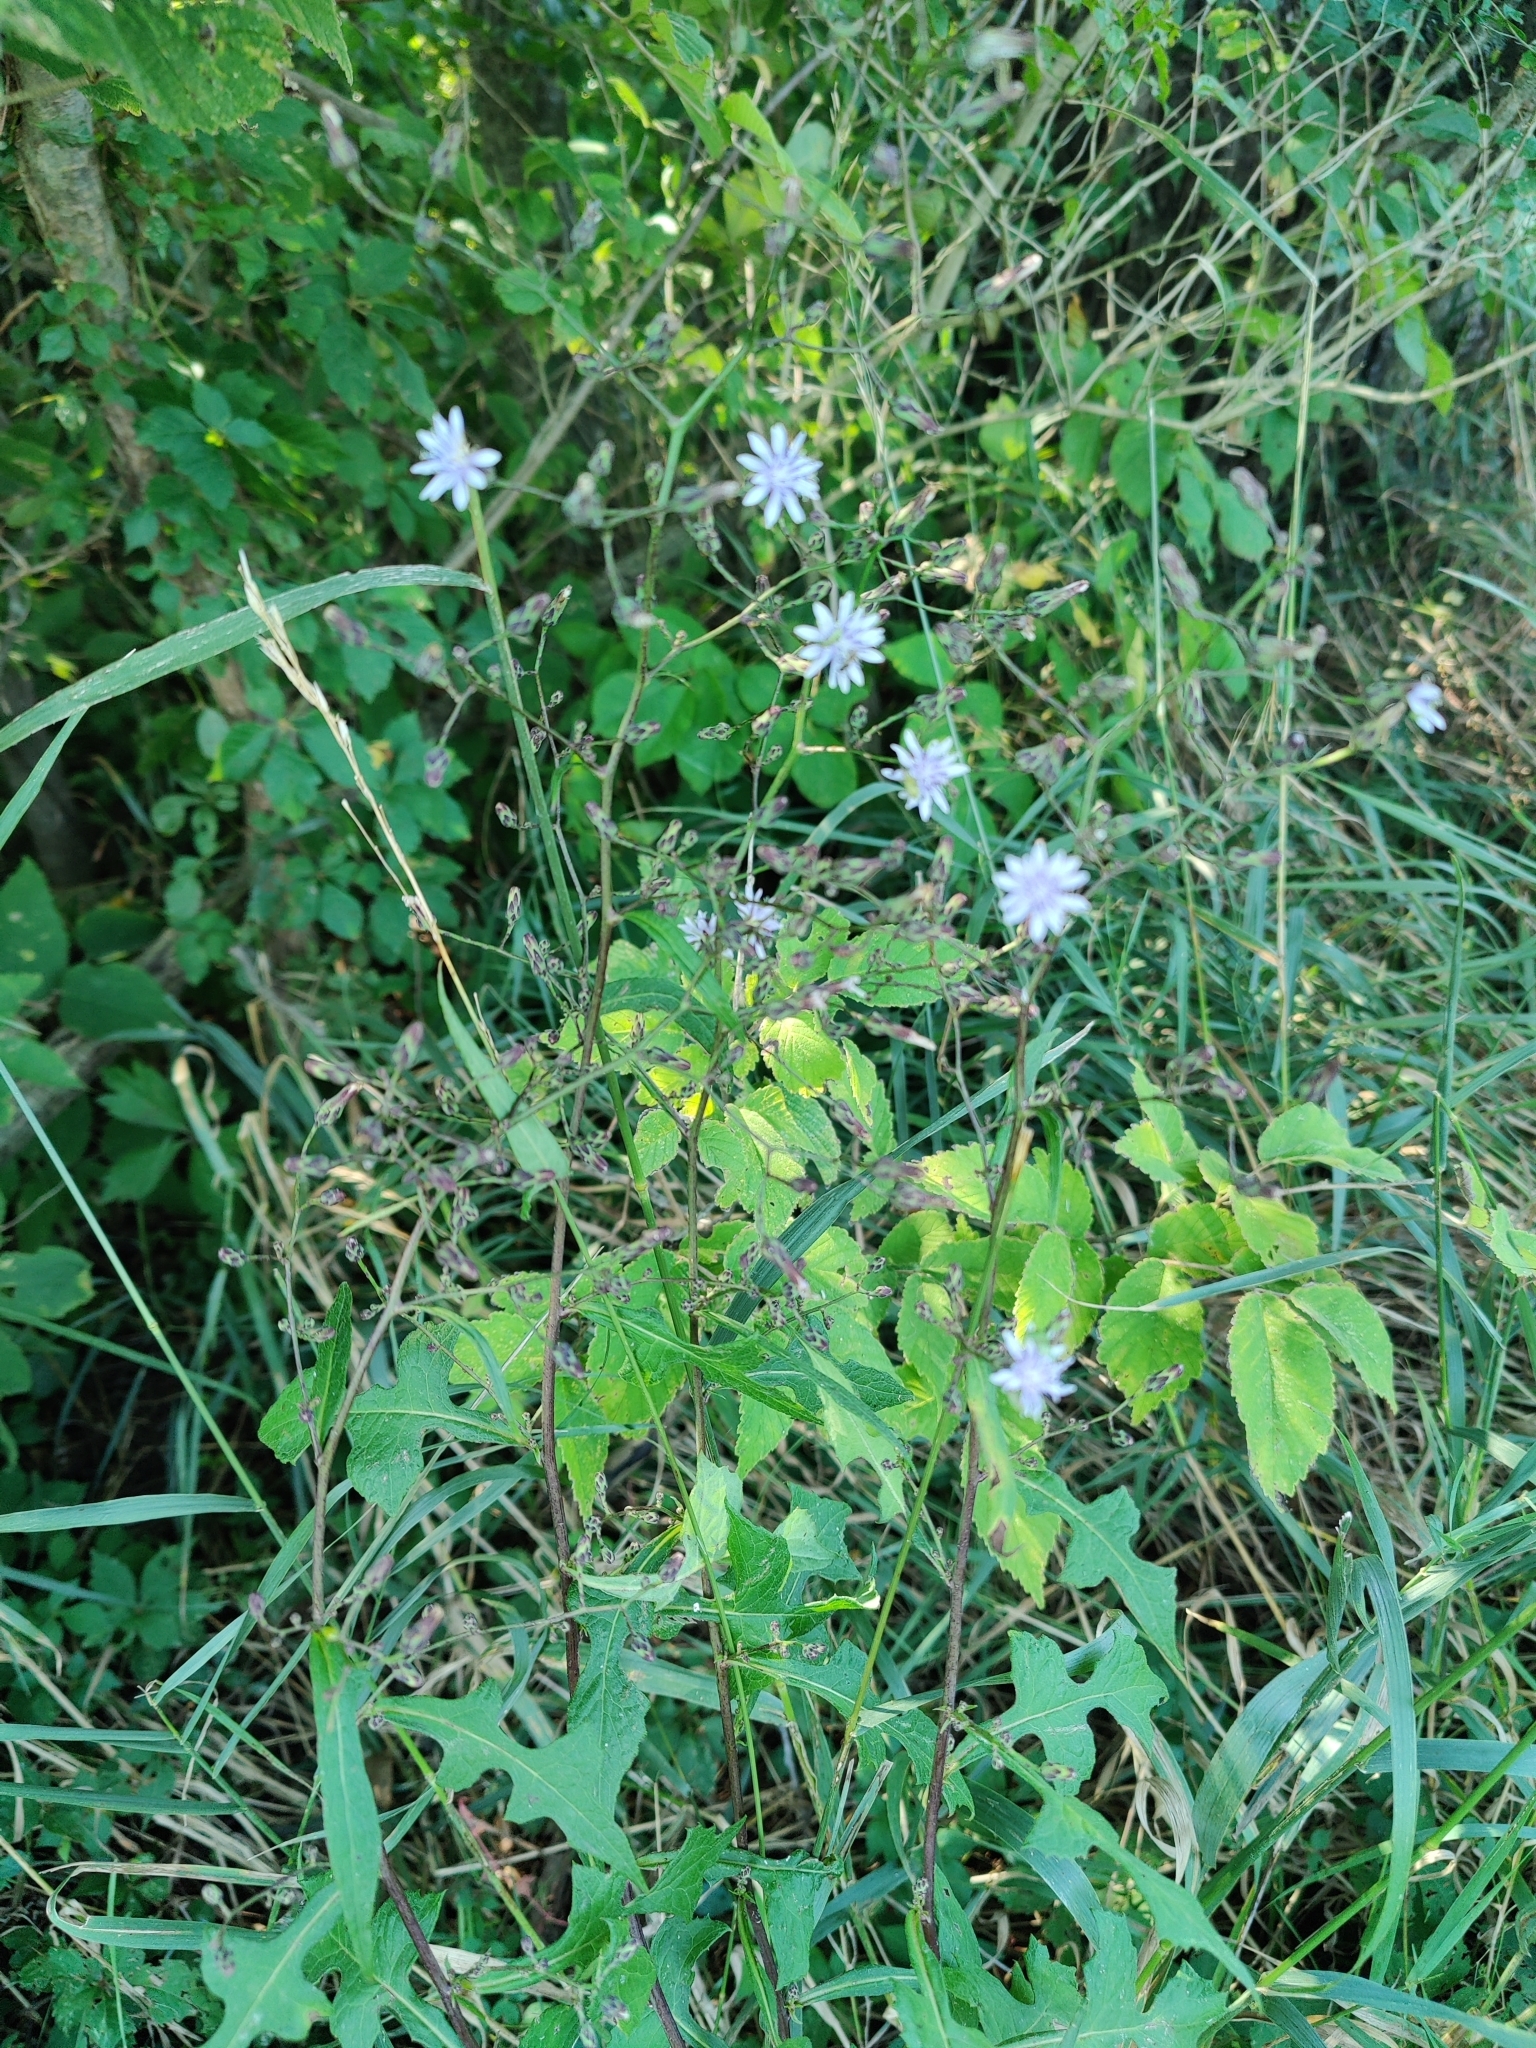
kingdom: Plantae
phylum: Tracheophyta
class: Magnoliopsida
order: Asterales
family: Asteraceae
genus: Lactuca
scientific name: Lactuca floridana
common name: Woodland lettuce
